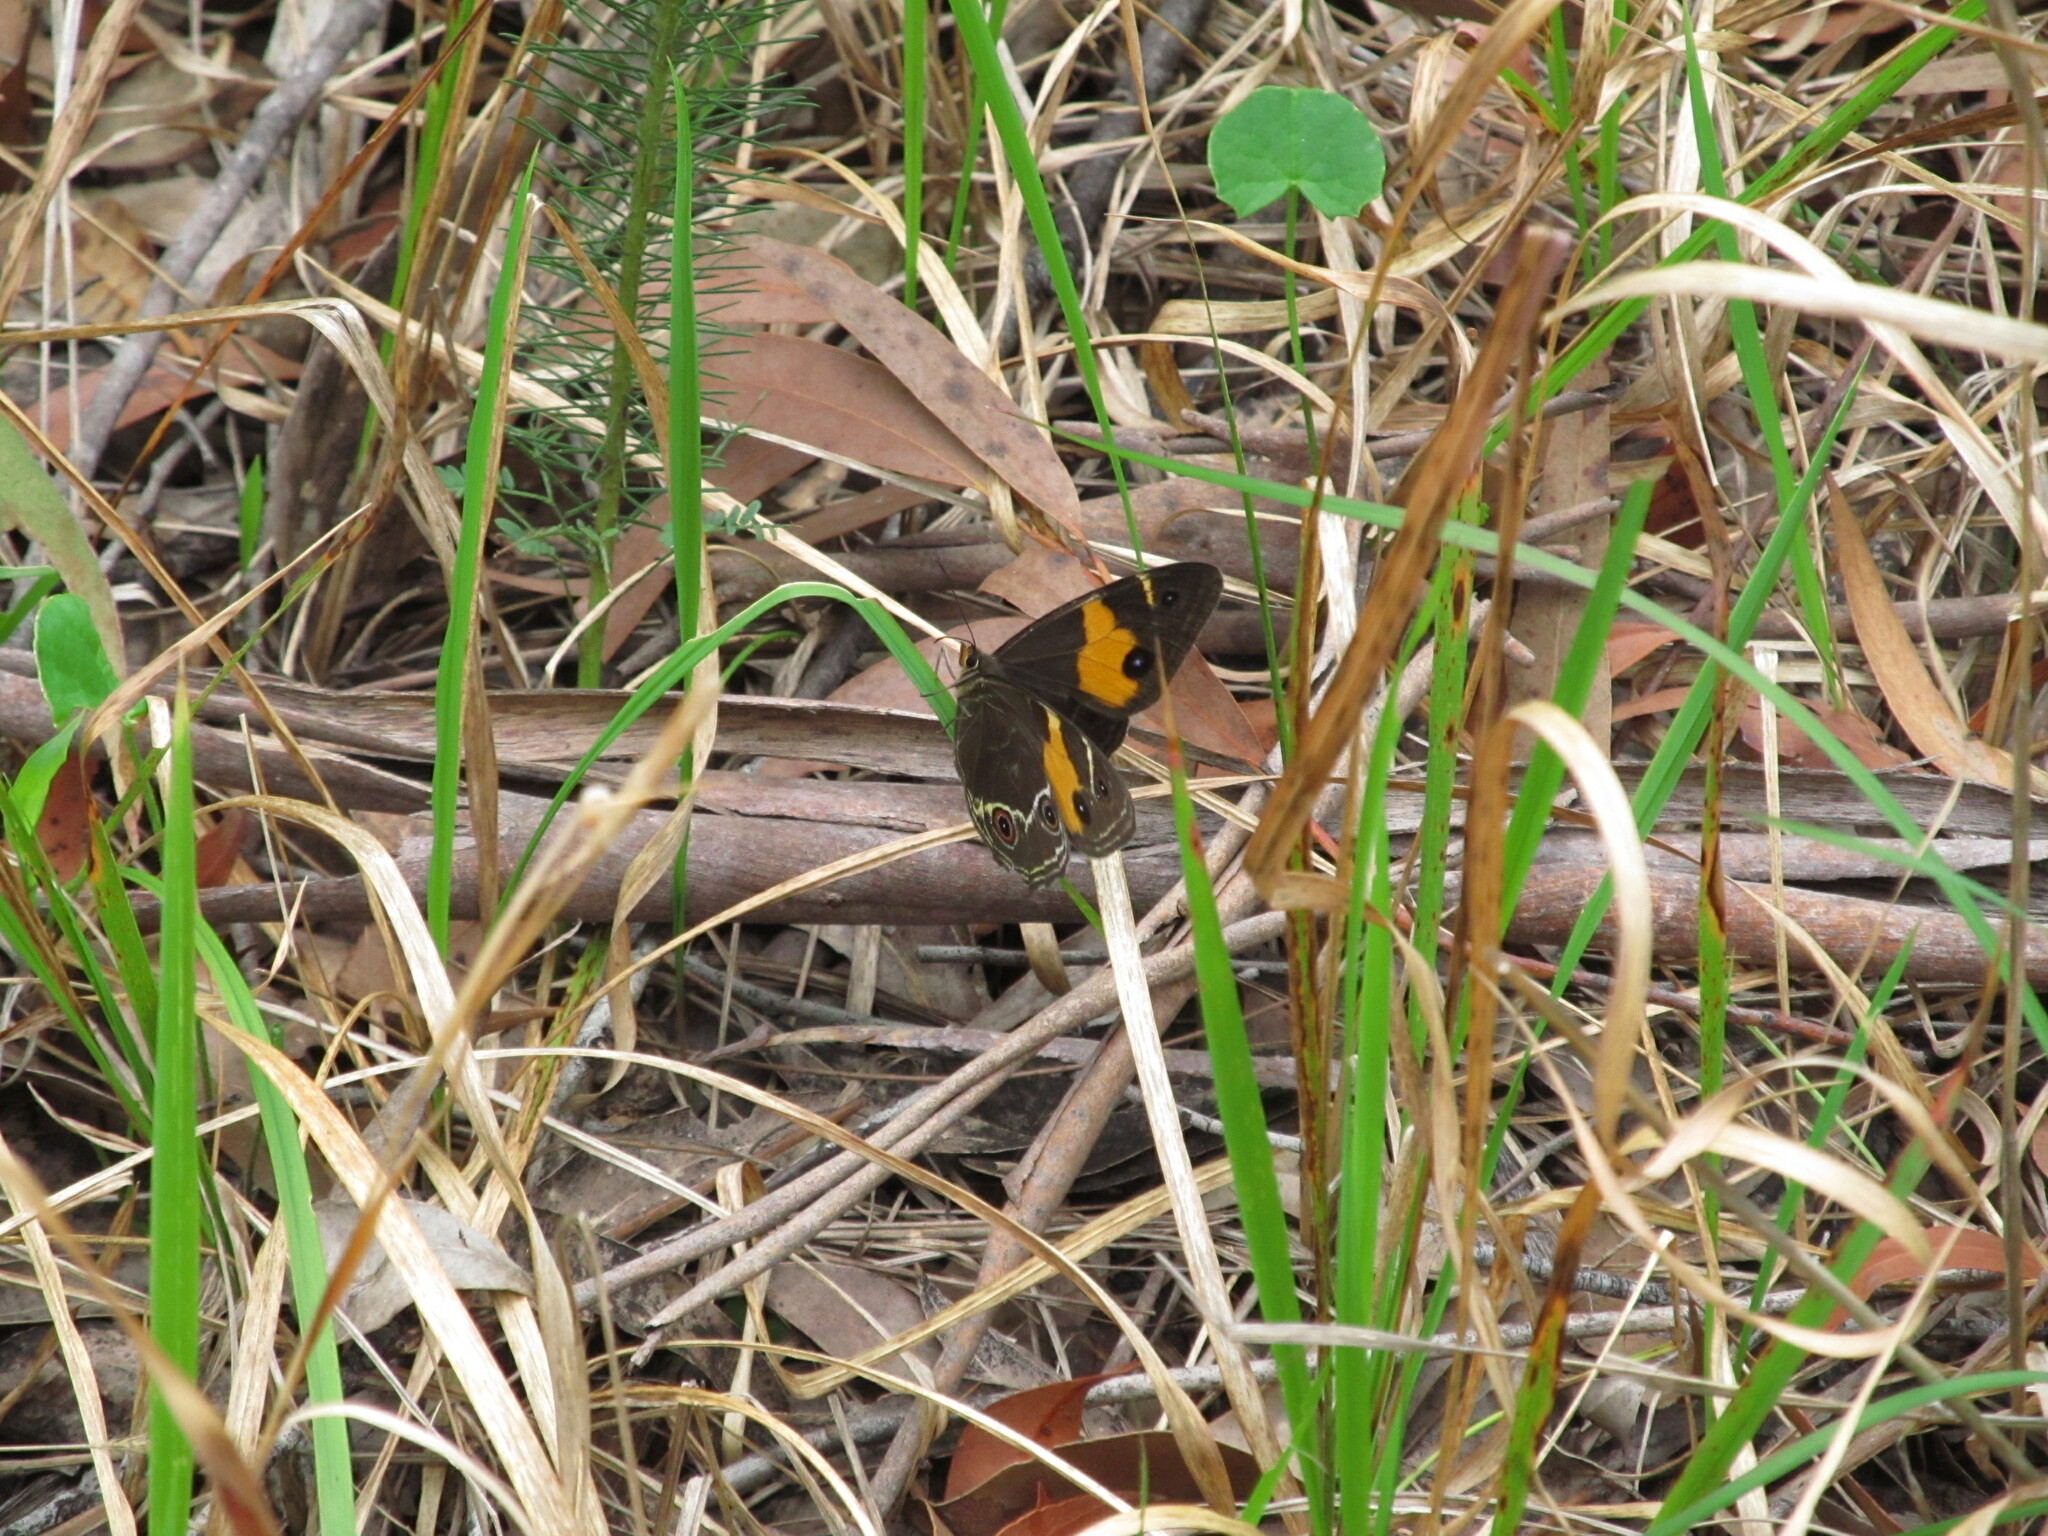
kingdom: Animalia
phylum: Arthropoda
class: Insecta
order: Lepidoptera
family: Nymphalidae
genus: Tisiphone
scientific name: Tisiphone abeona
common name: Swordgrass brown
